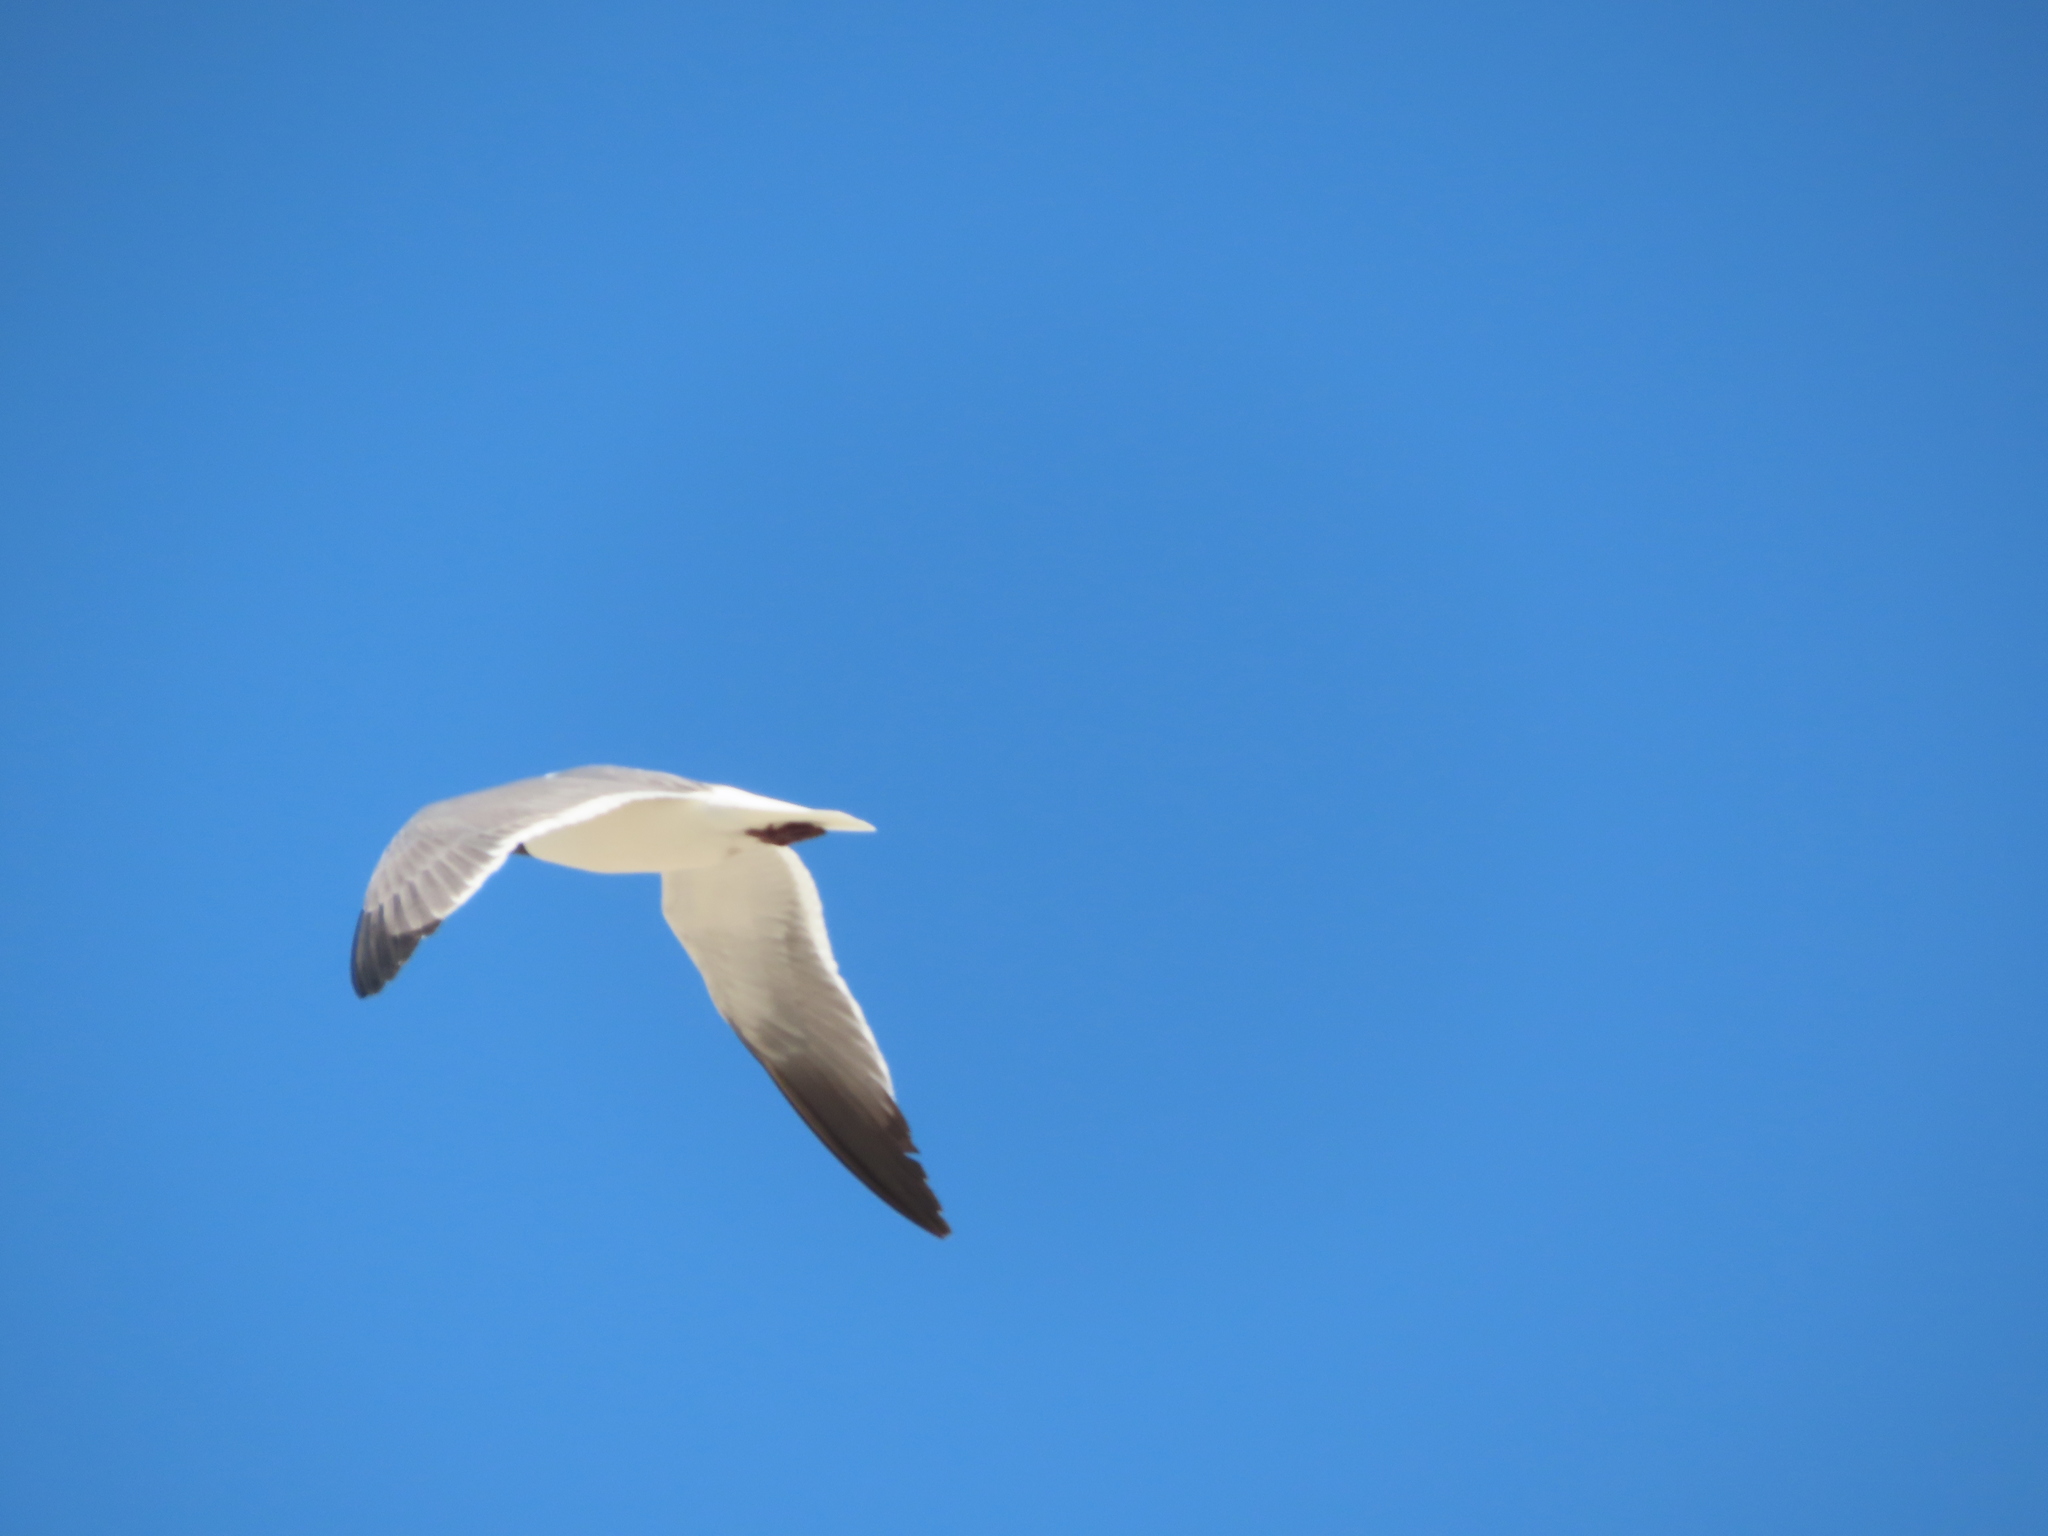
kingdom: Animalia
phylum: Chordata
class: Aves
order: Charadriiformes
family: Laridae
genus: Leucophaeus
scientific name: Leucophaeus atricilla
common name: Laughing gull
